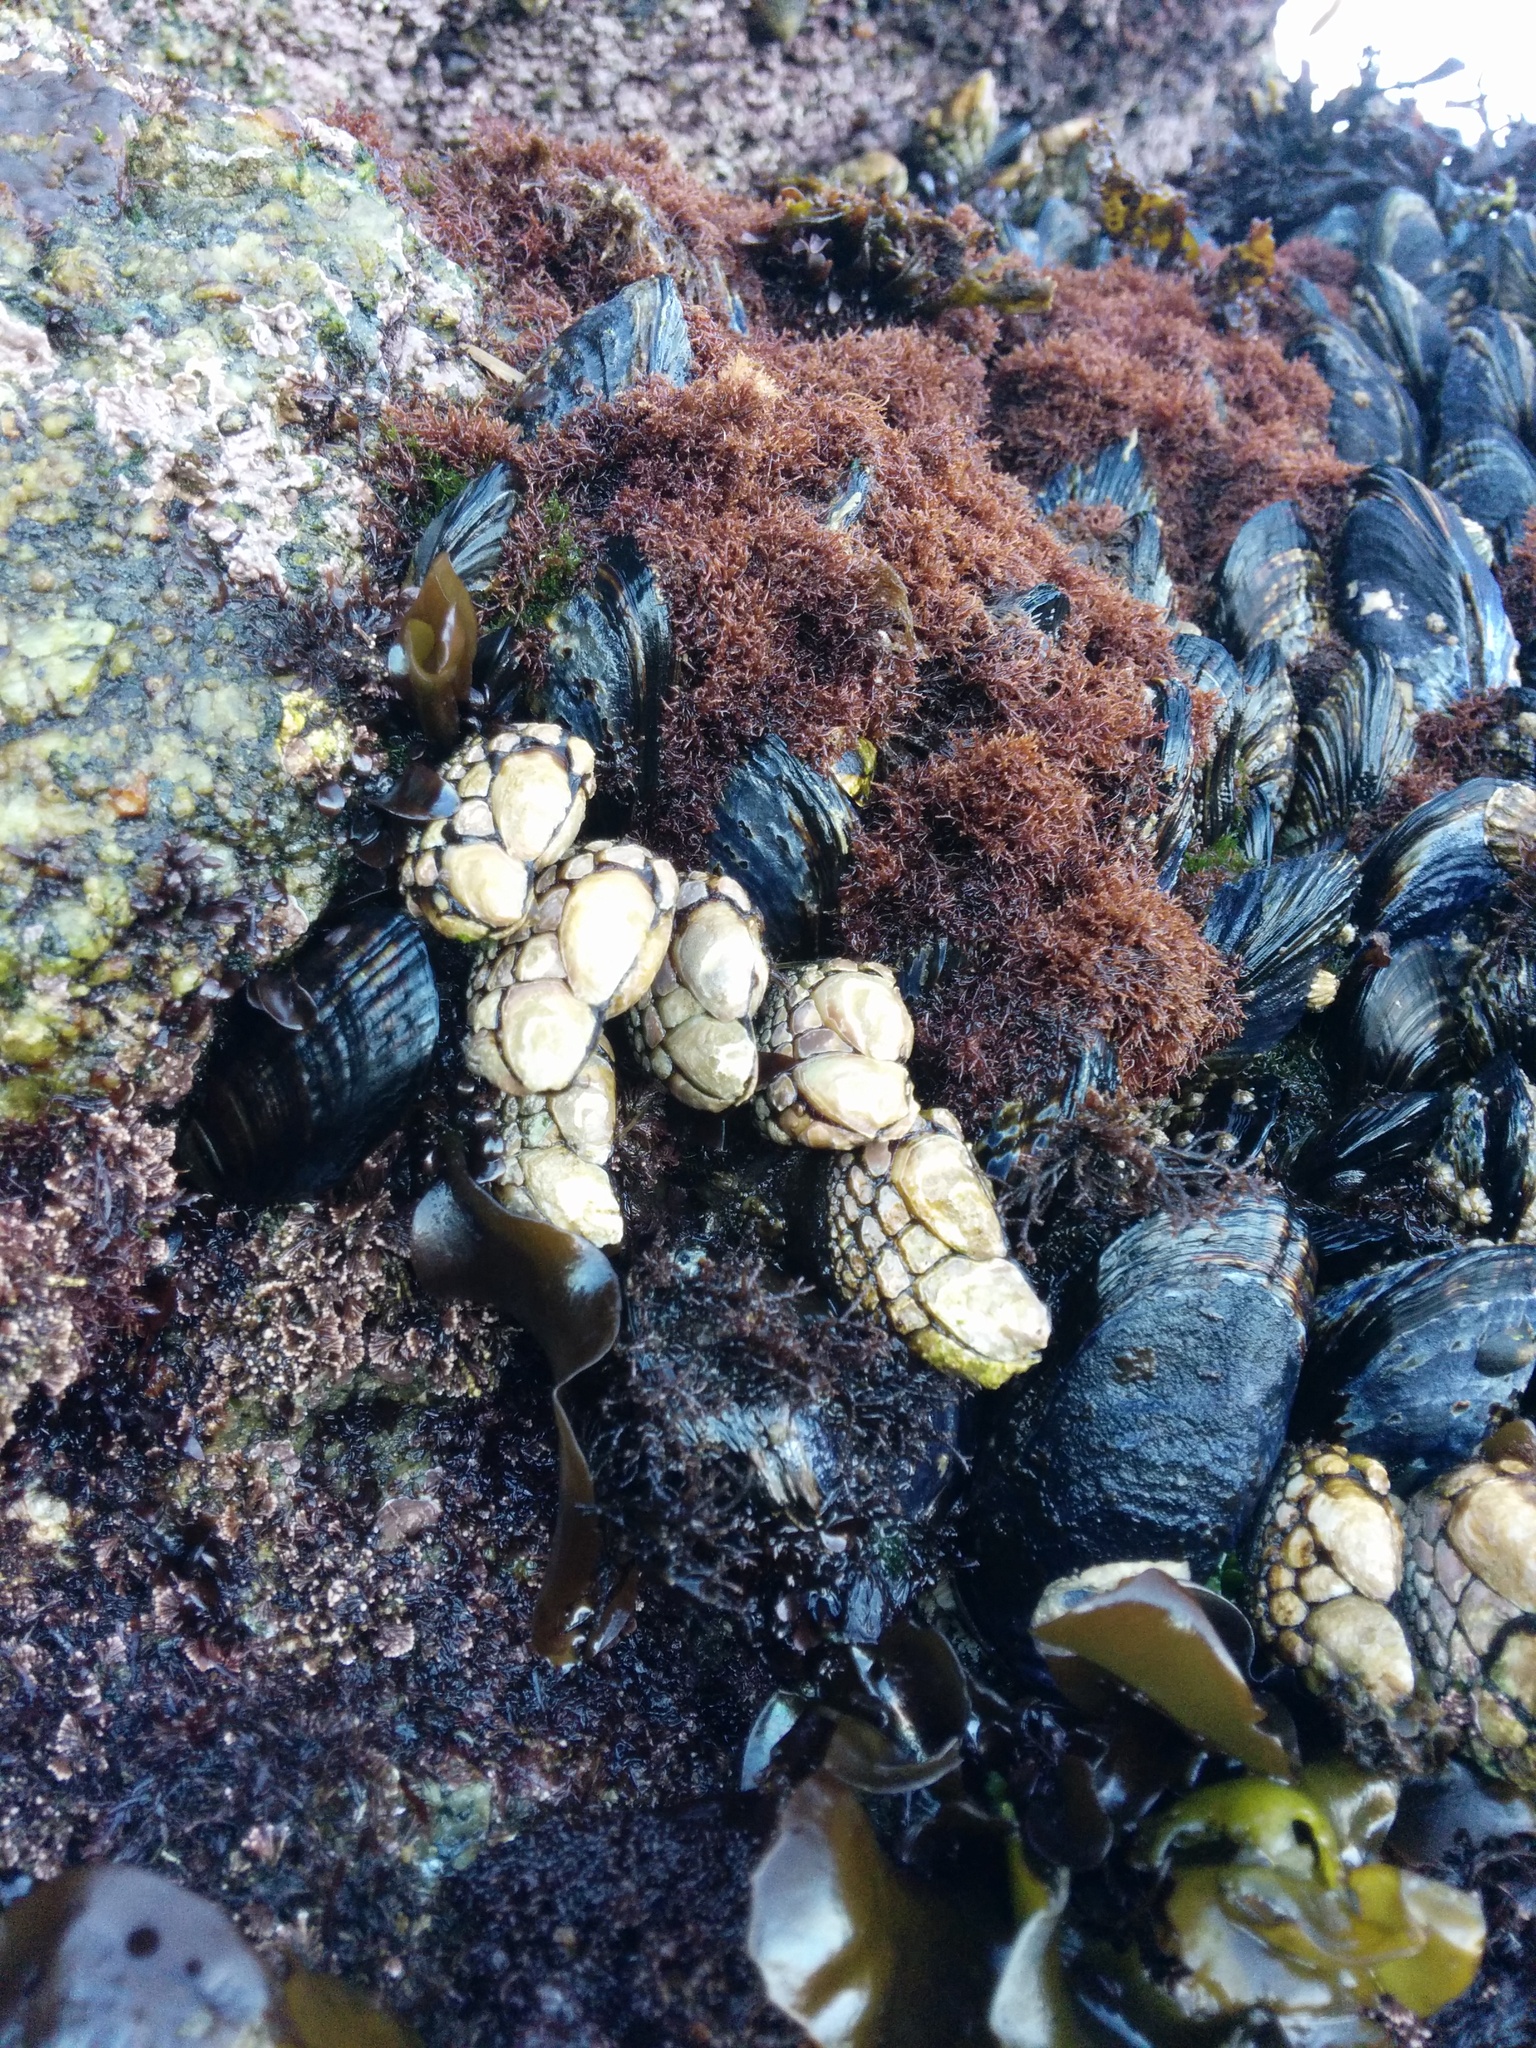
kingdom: Animalia
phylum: Arthropoda
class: Maxillopoda
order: Pedunculata
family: Pollicipedidae
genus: Pollicipes
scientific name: Pollicipes polymerus
